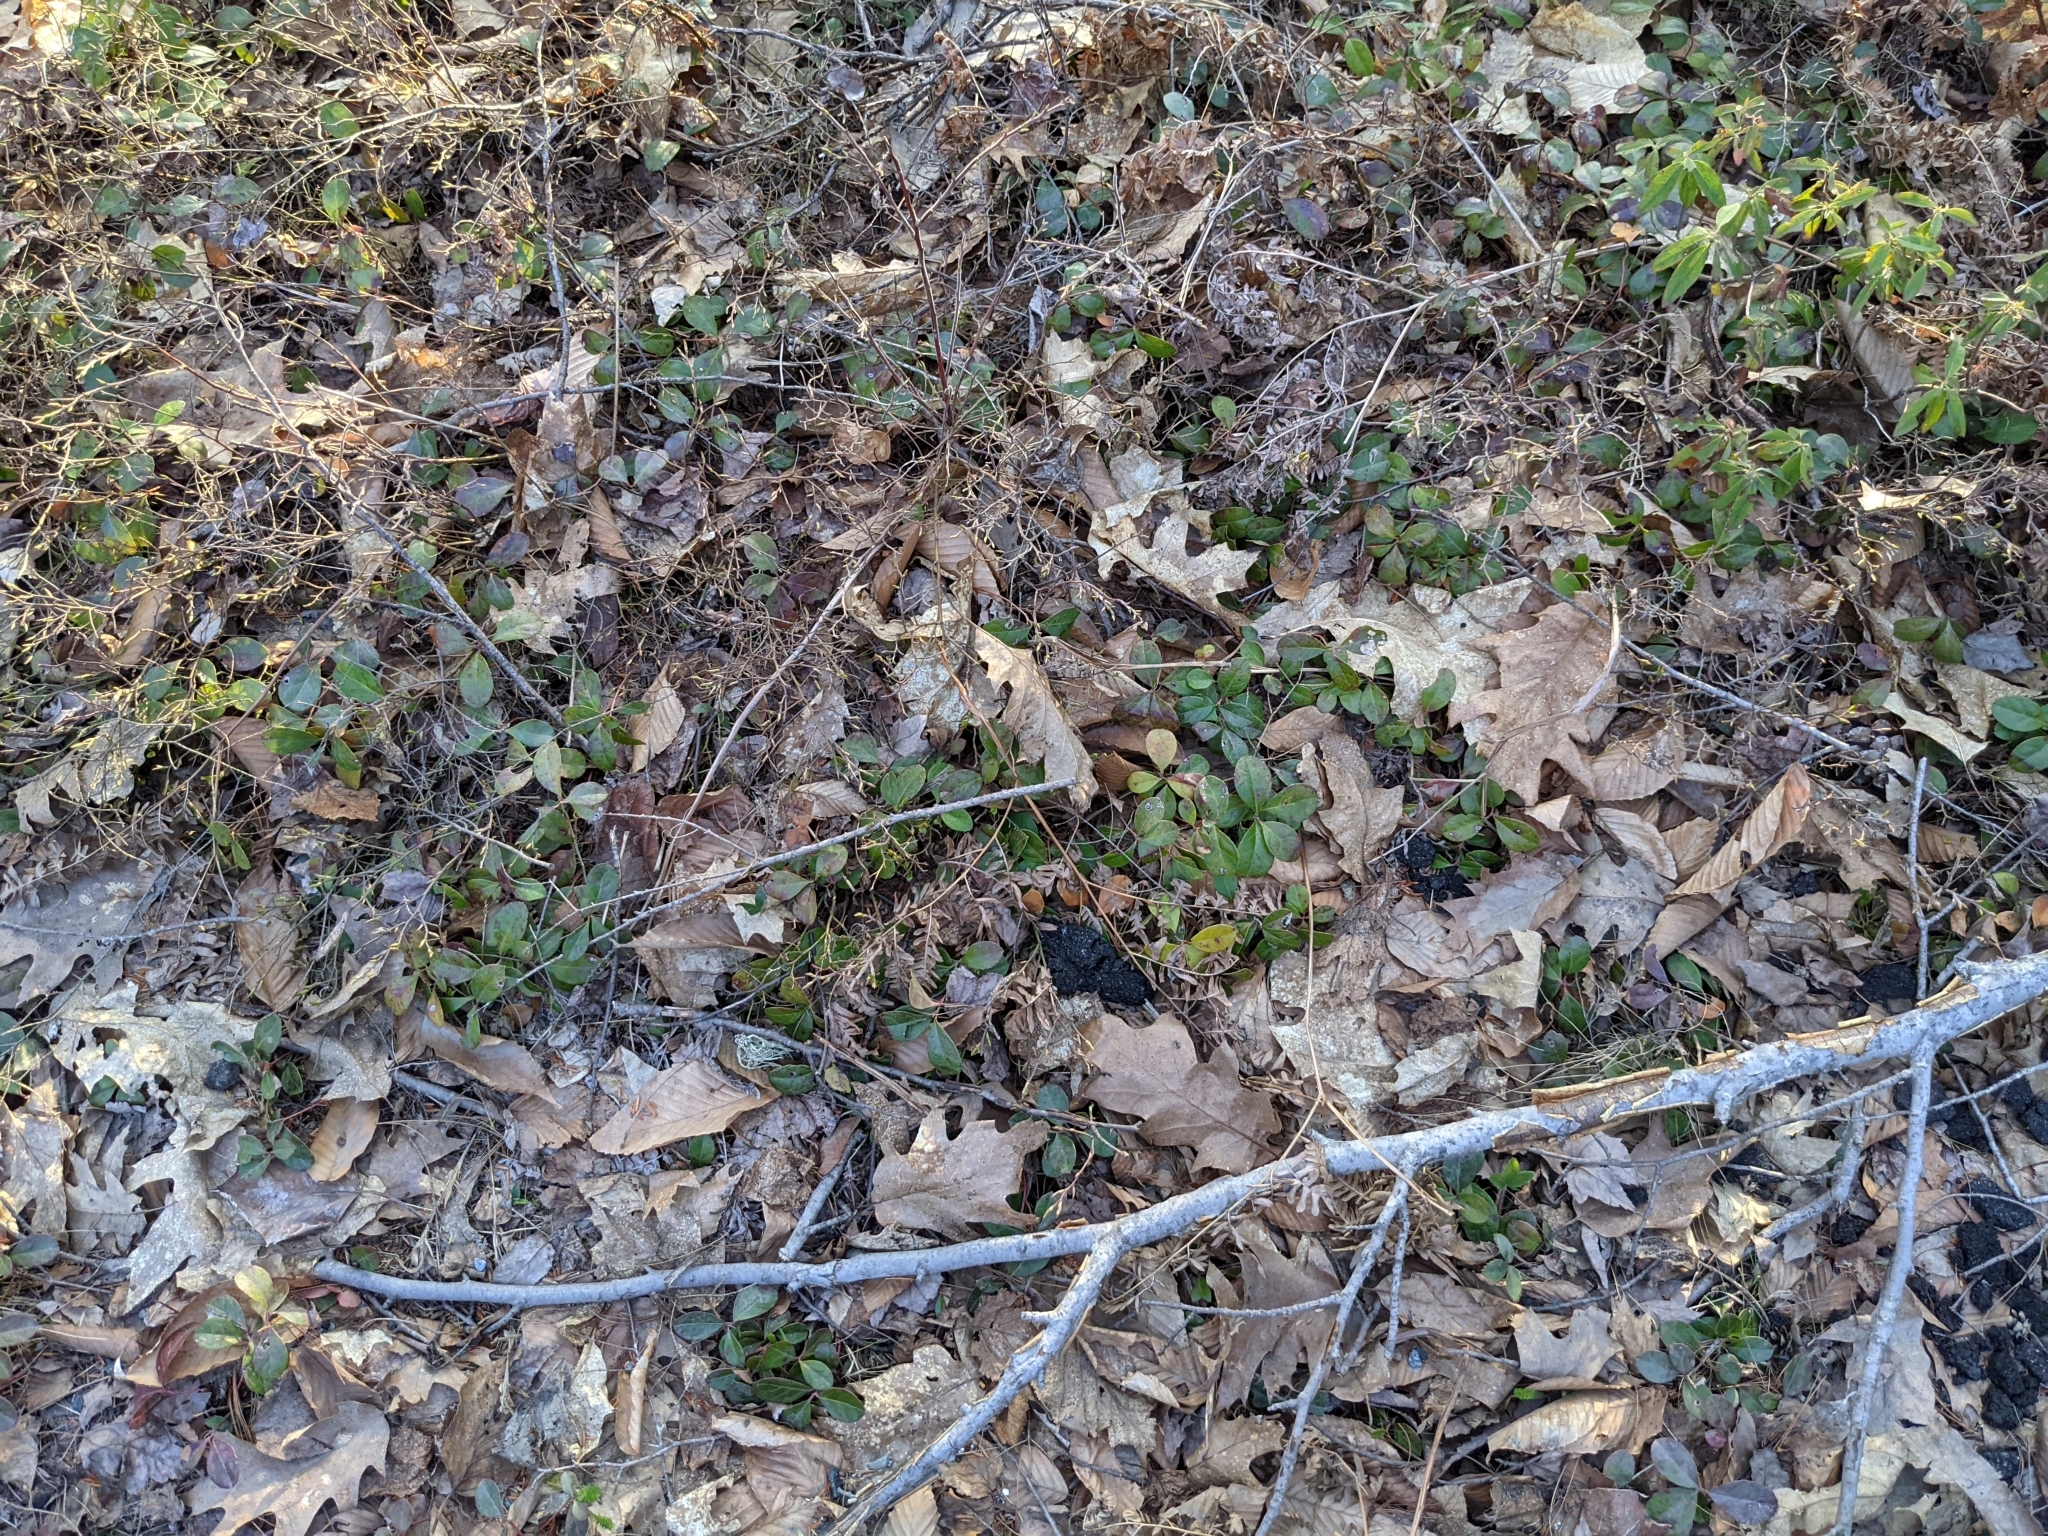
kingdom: Plantae
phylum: Tracheophyta
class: Magnoliopsida
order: Ericales
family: Ericaceae
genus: Gaultheria
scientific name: Gaultheria procumbens
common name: Checkerberry
